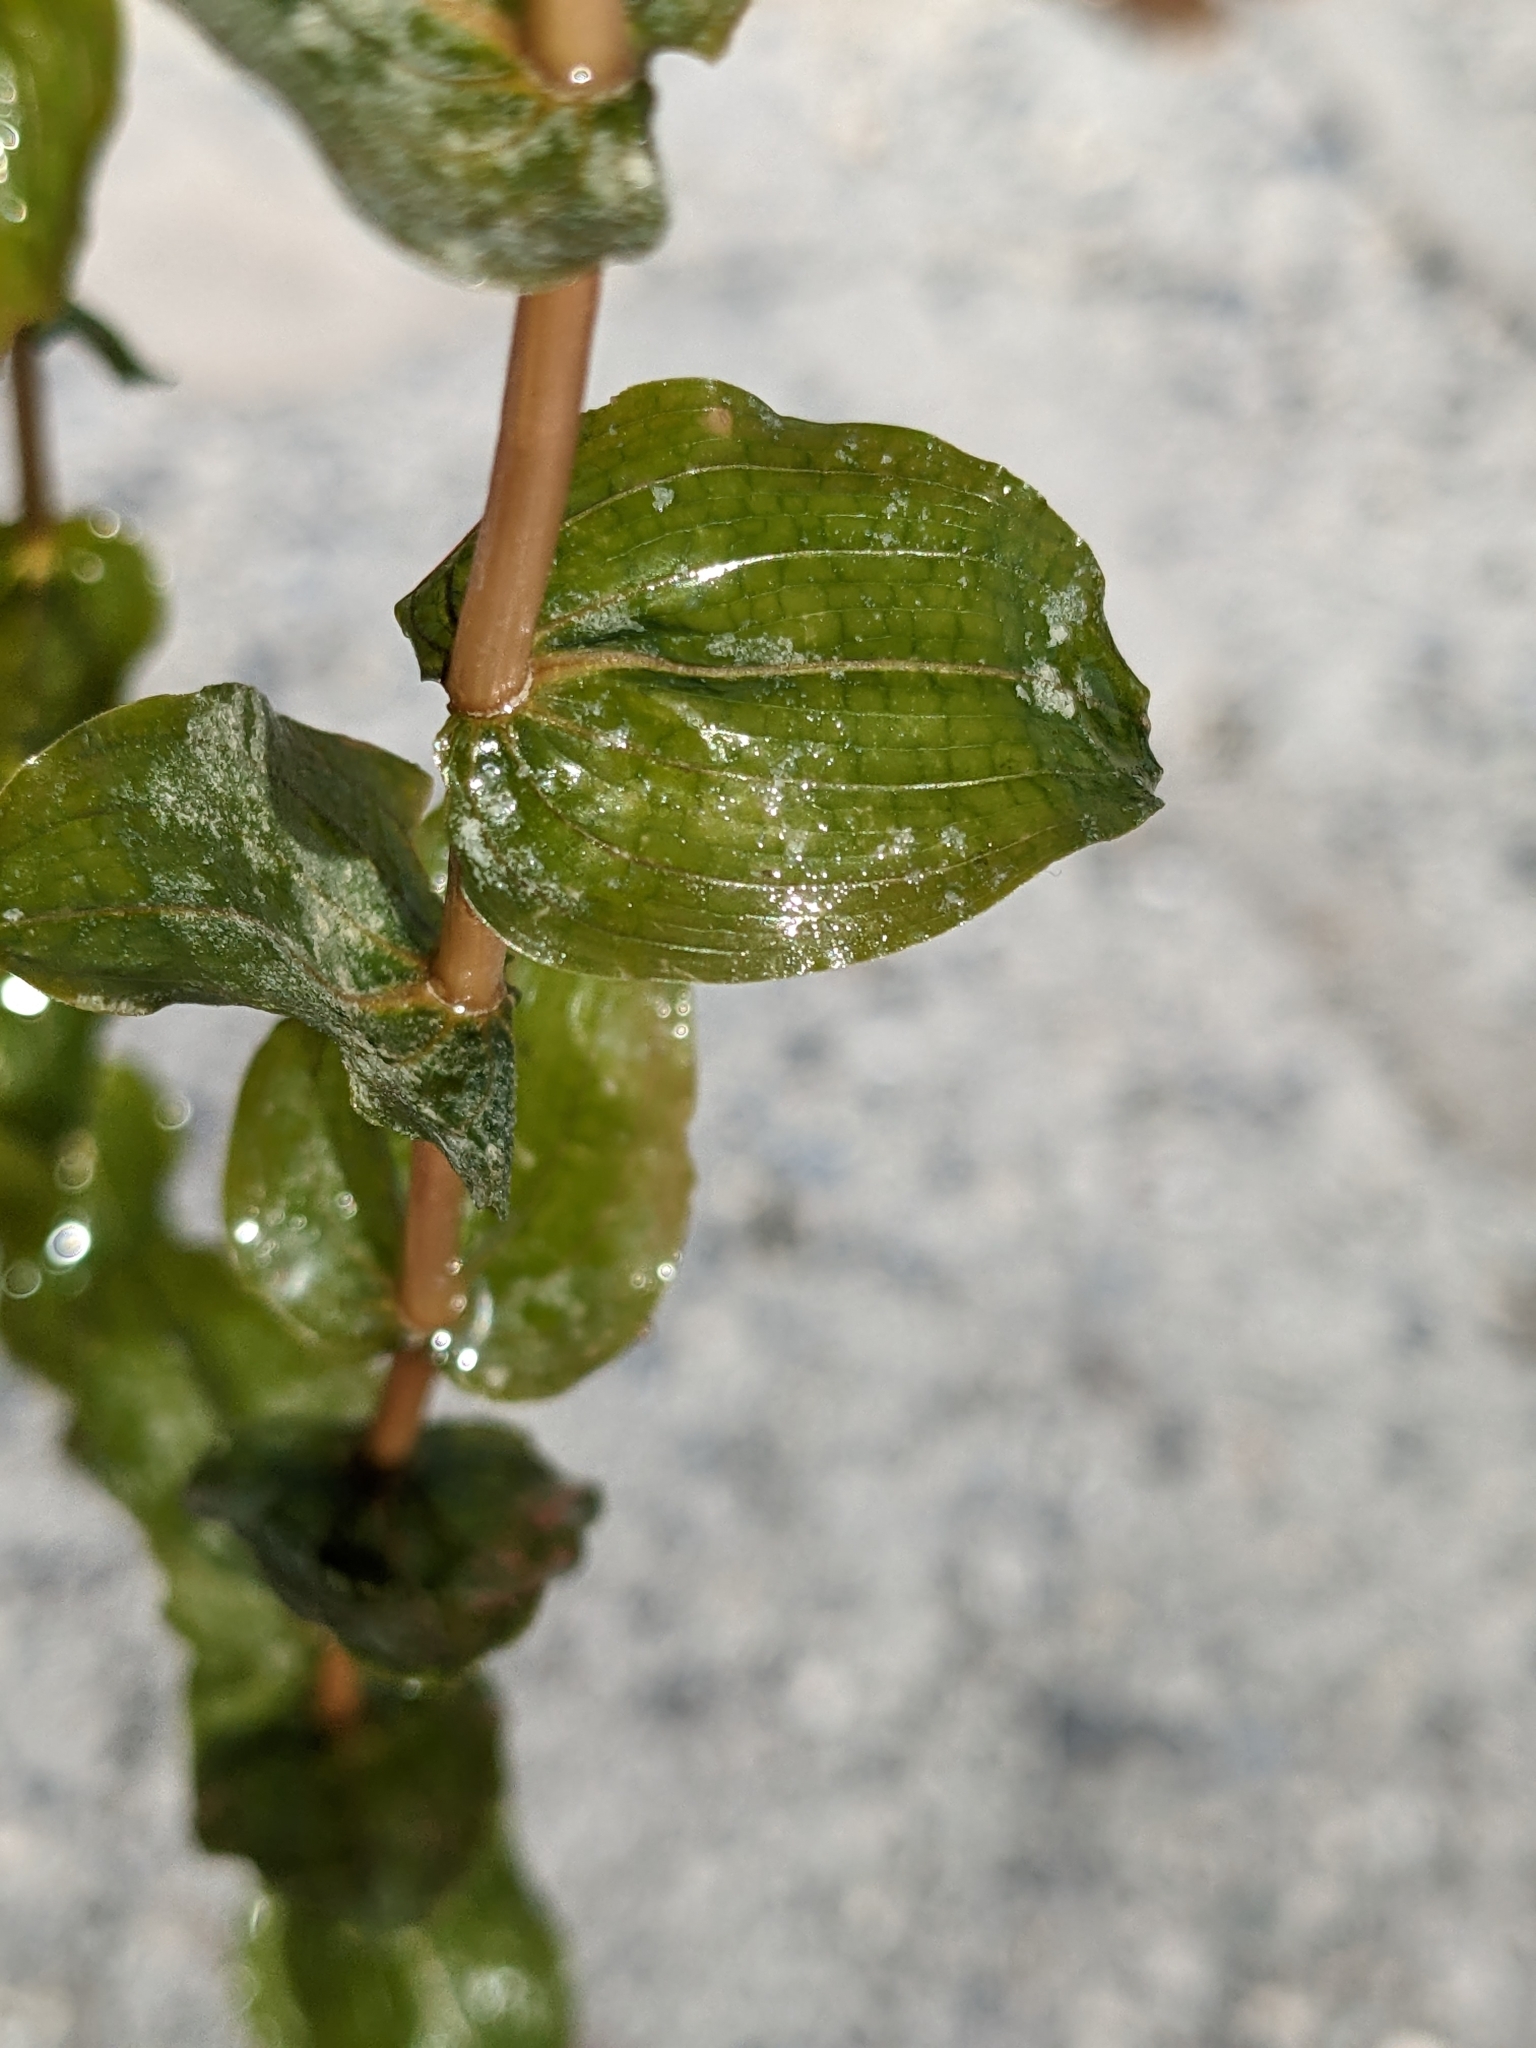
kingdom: Plantae
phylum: Tracheophyta
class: Liliopsida
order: Alismatales
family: Potamogetonaceae
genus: Potamogeton
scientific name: Potamogeton perfoliatus
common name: Perfoliate pondweed
